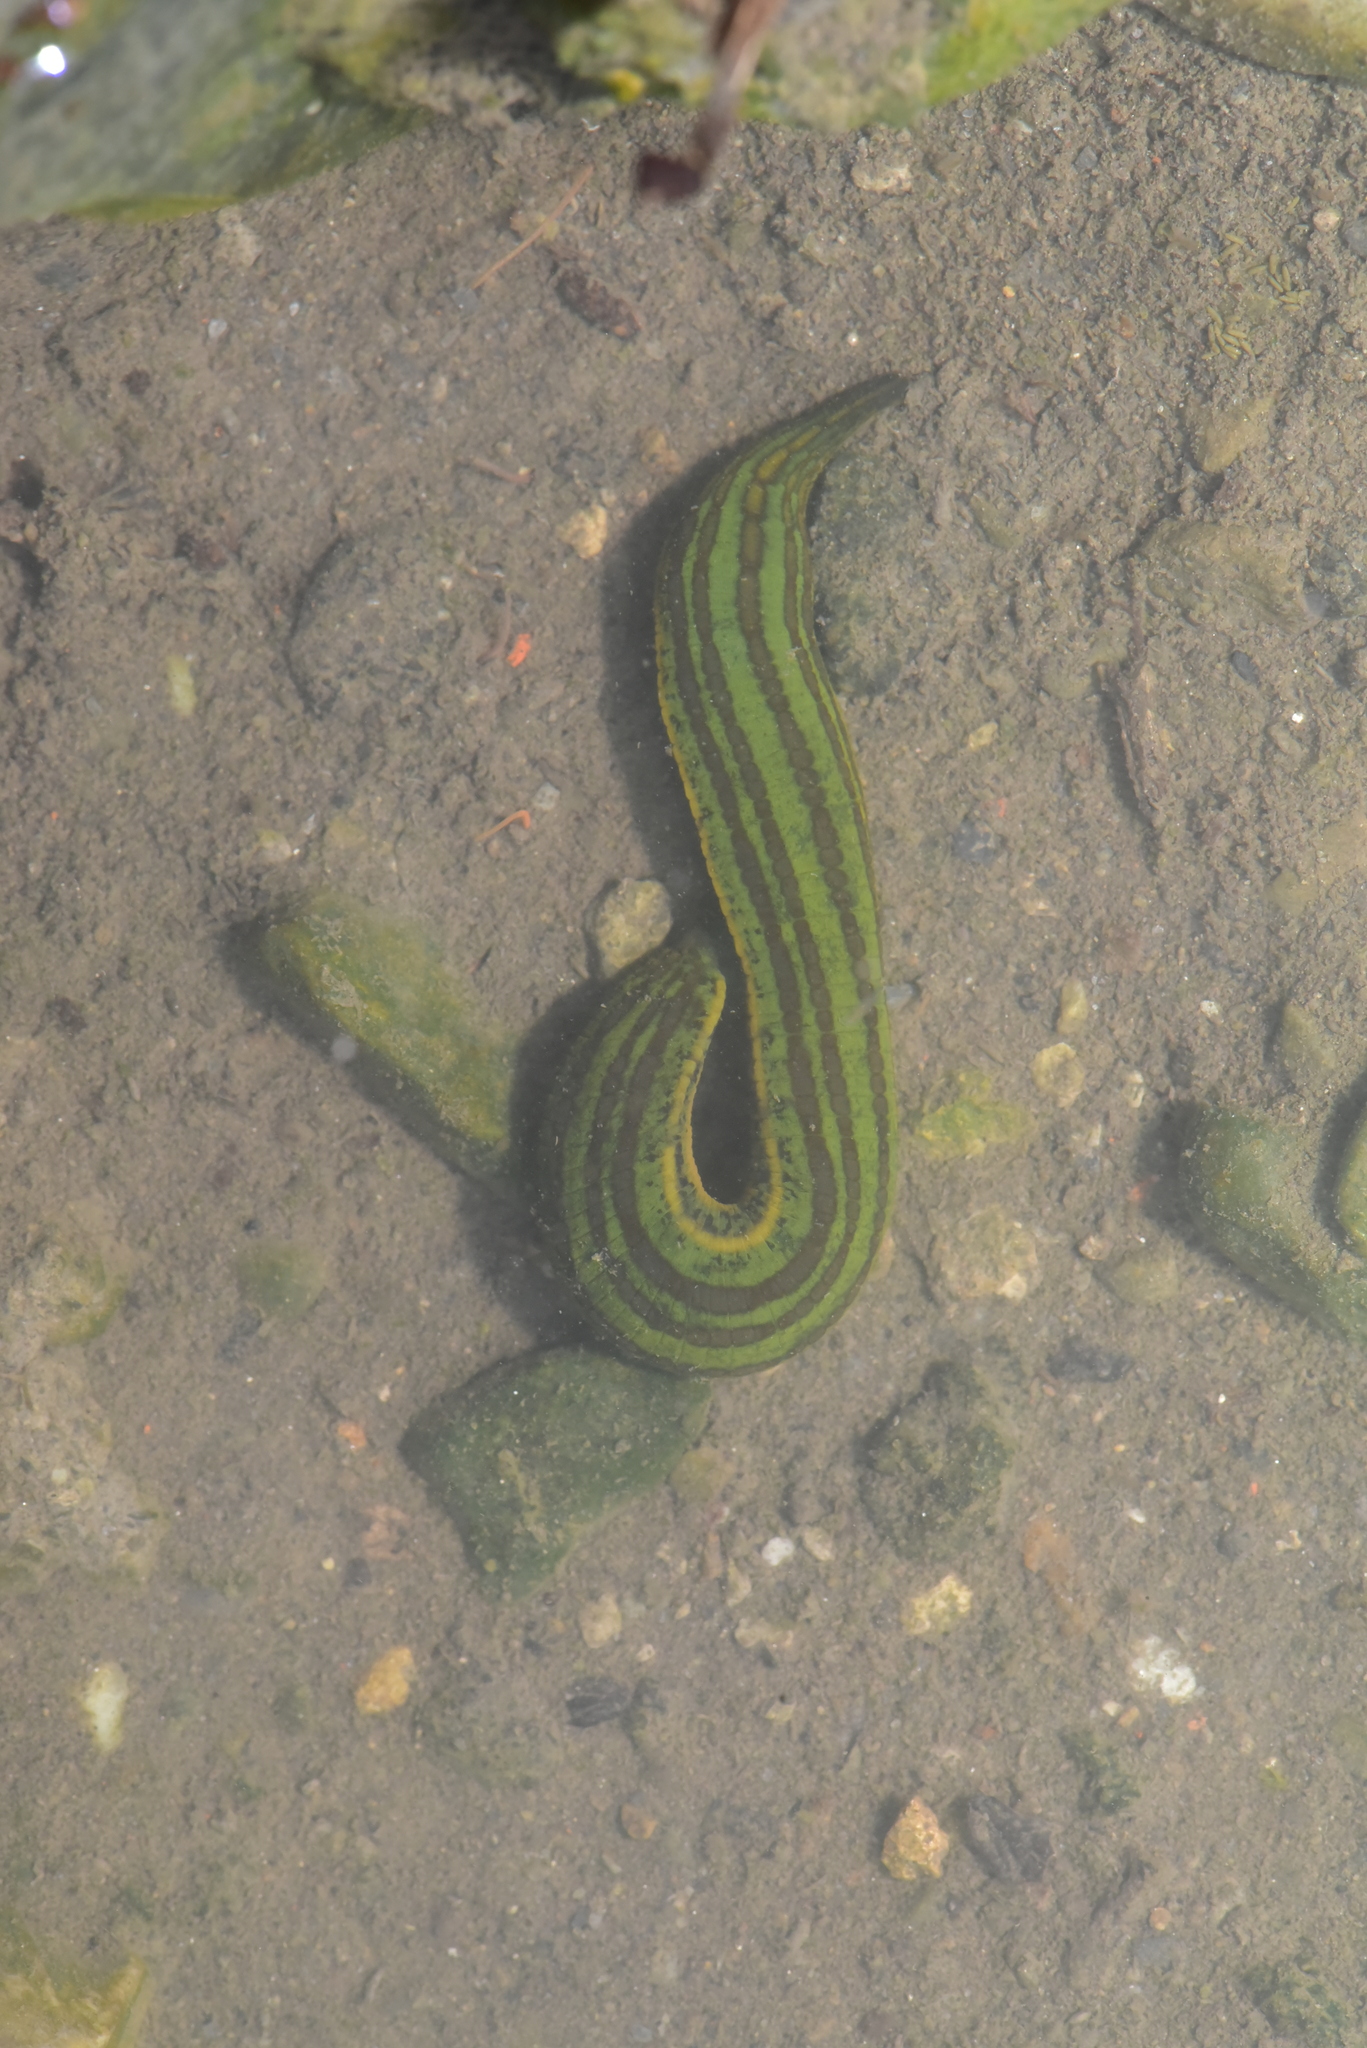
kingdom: Animalia
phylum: Annelida
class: Clitellata
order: Arhynchobdellida
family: Hirudinidae
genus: Whitmania
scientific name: Whitmania laevis
